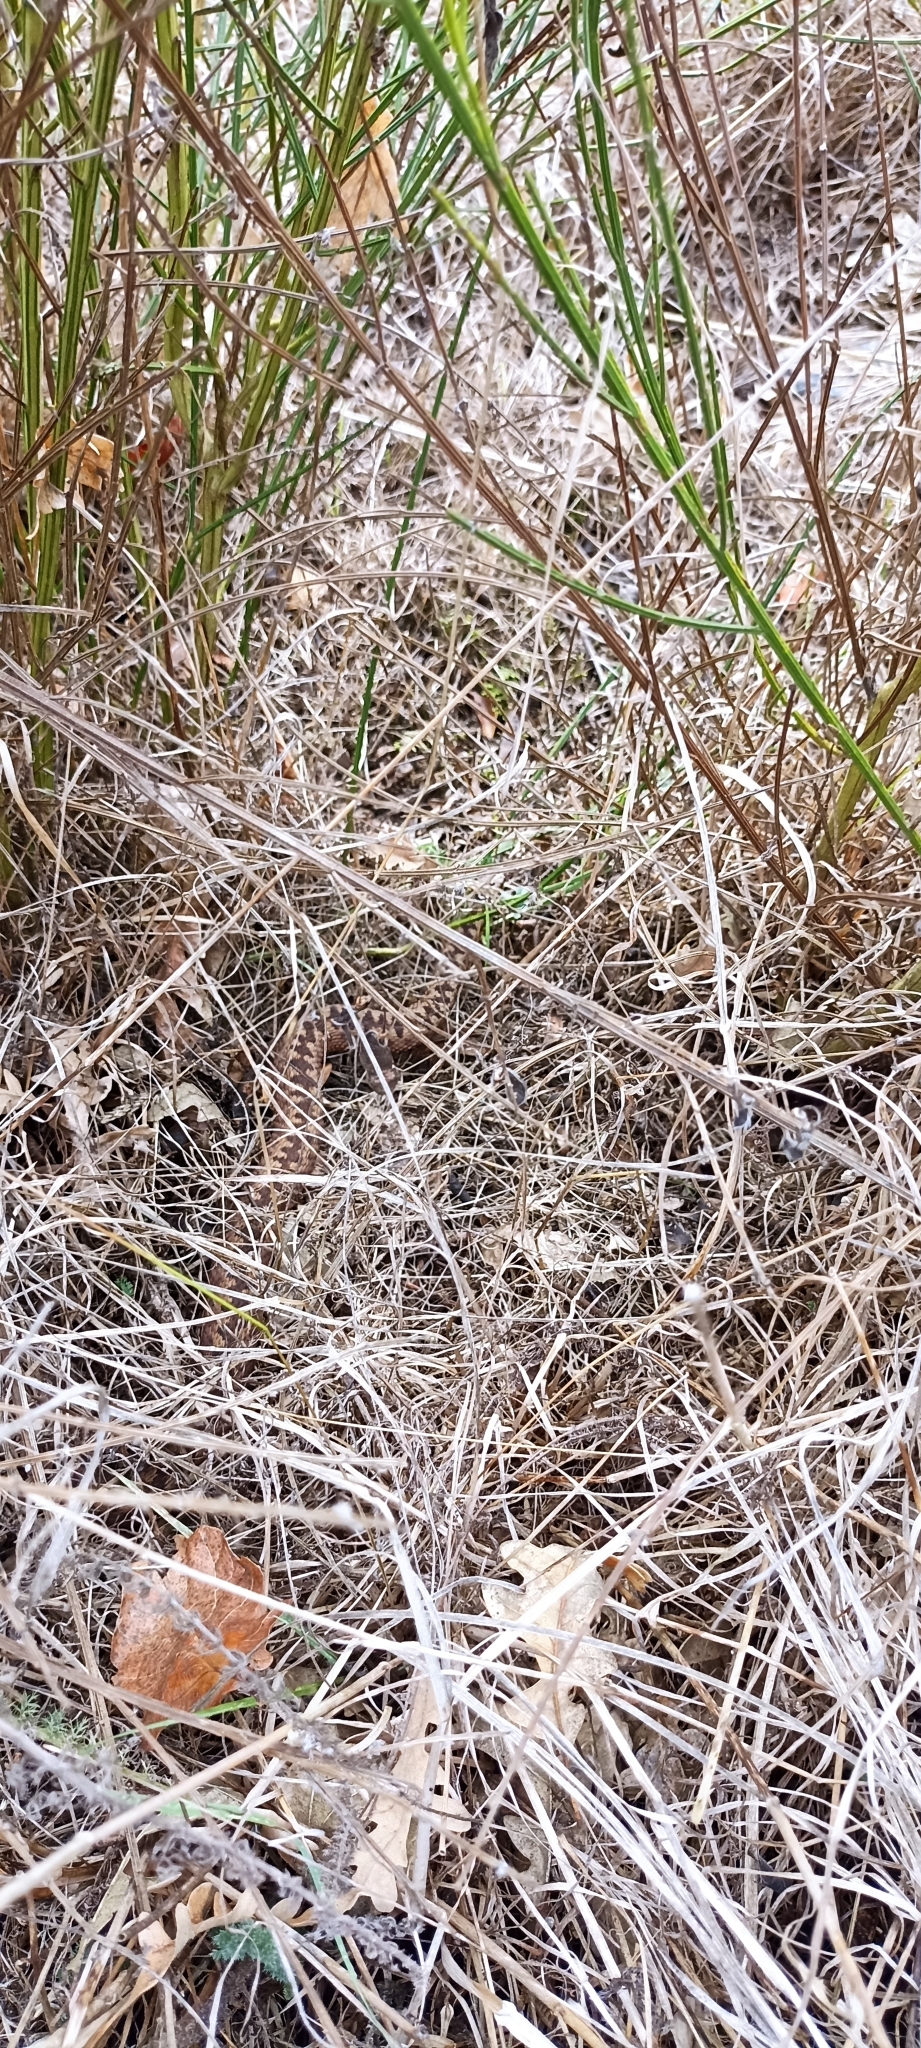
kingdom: Animalia
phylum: Chordata
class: Squamata
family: Viperidae
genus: Vipera
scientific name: Vipera berus
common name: Adder
